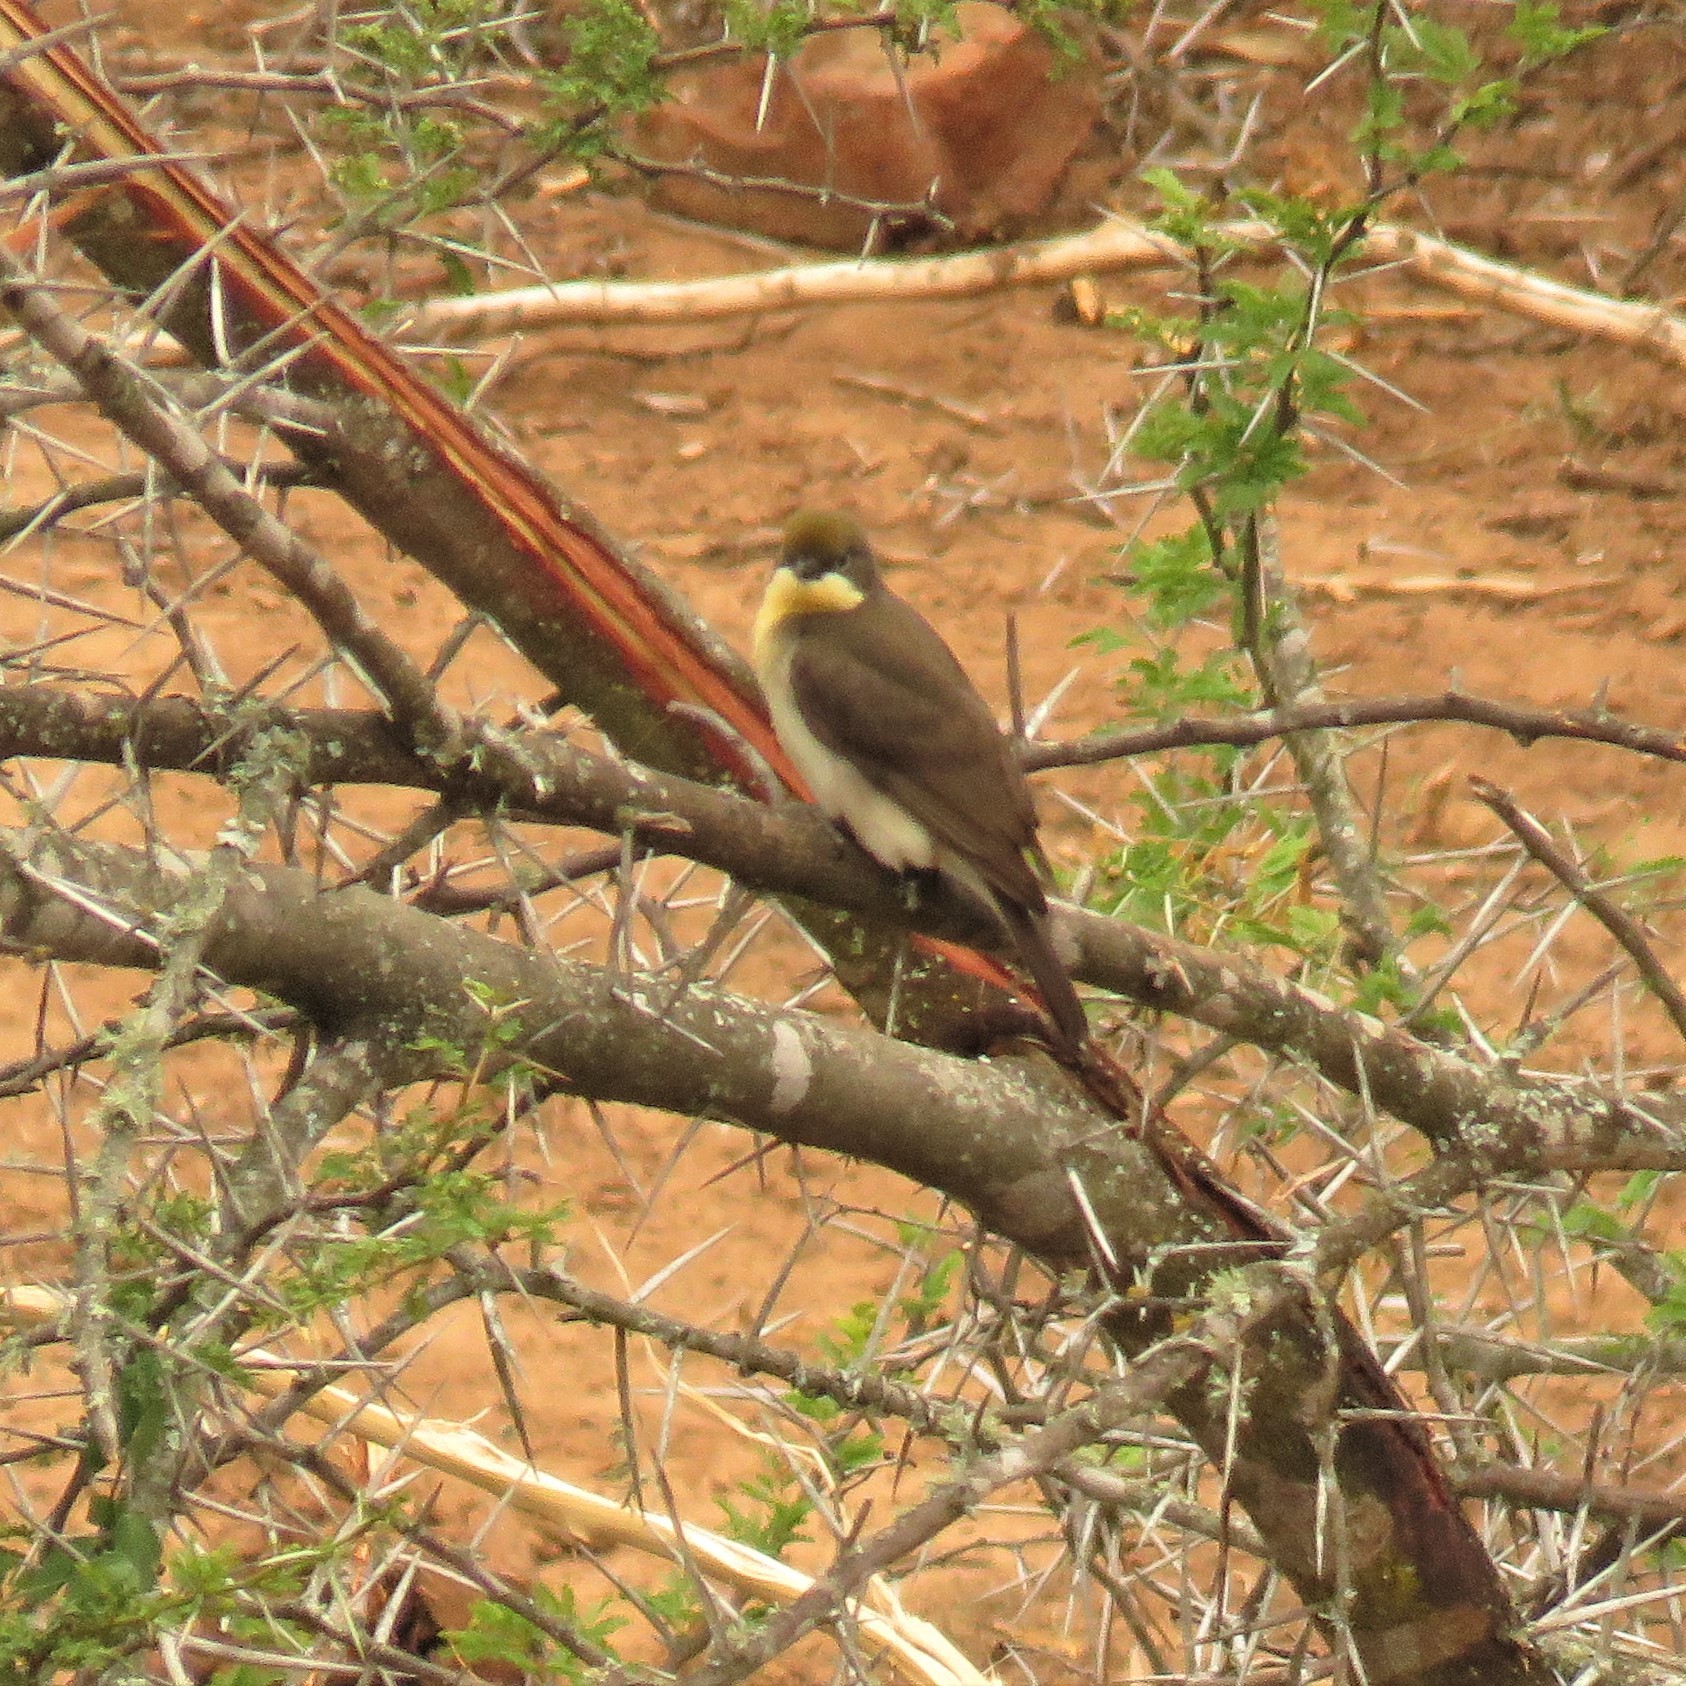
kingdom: Animalia
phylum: Chordata
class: Aves
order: Piciformes
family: Indicatoridae
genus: Indicator
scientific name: Indicator indicator
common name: Greater honeyguide
